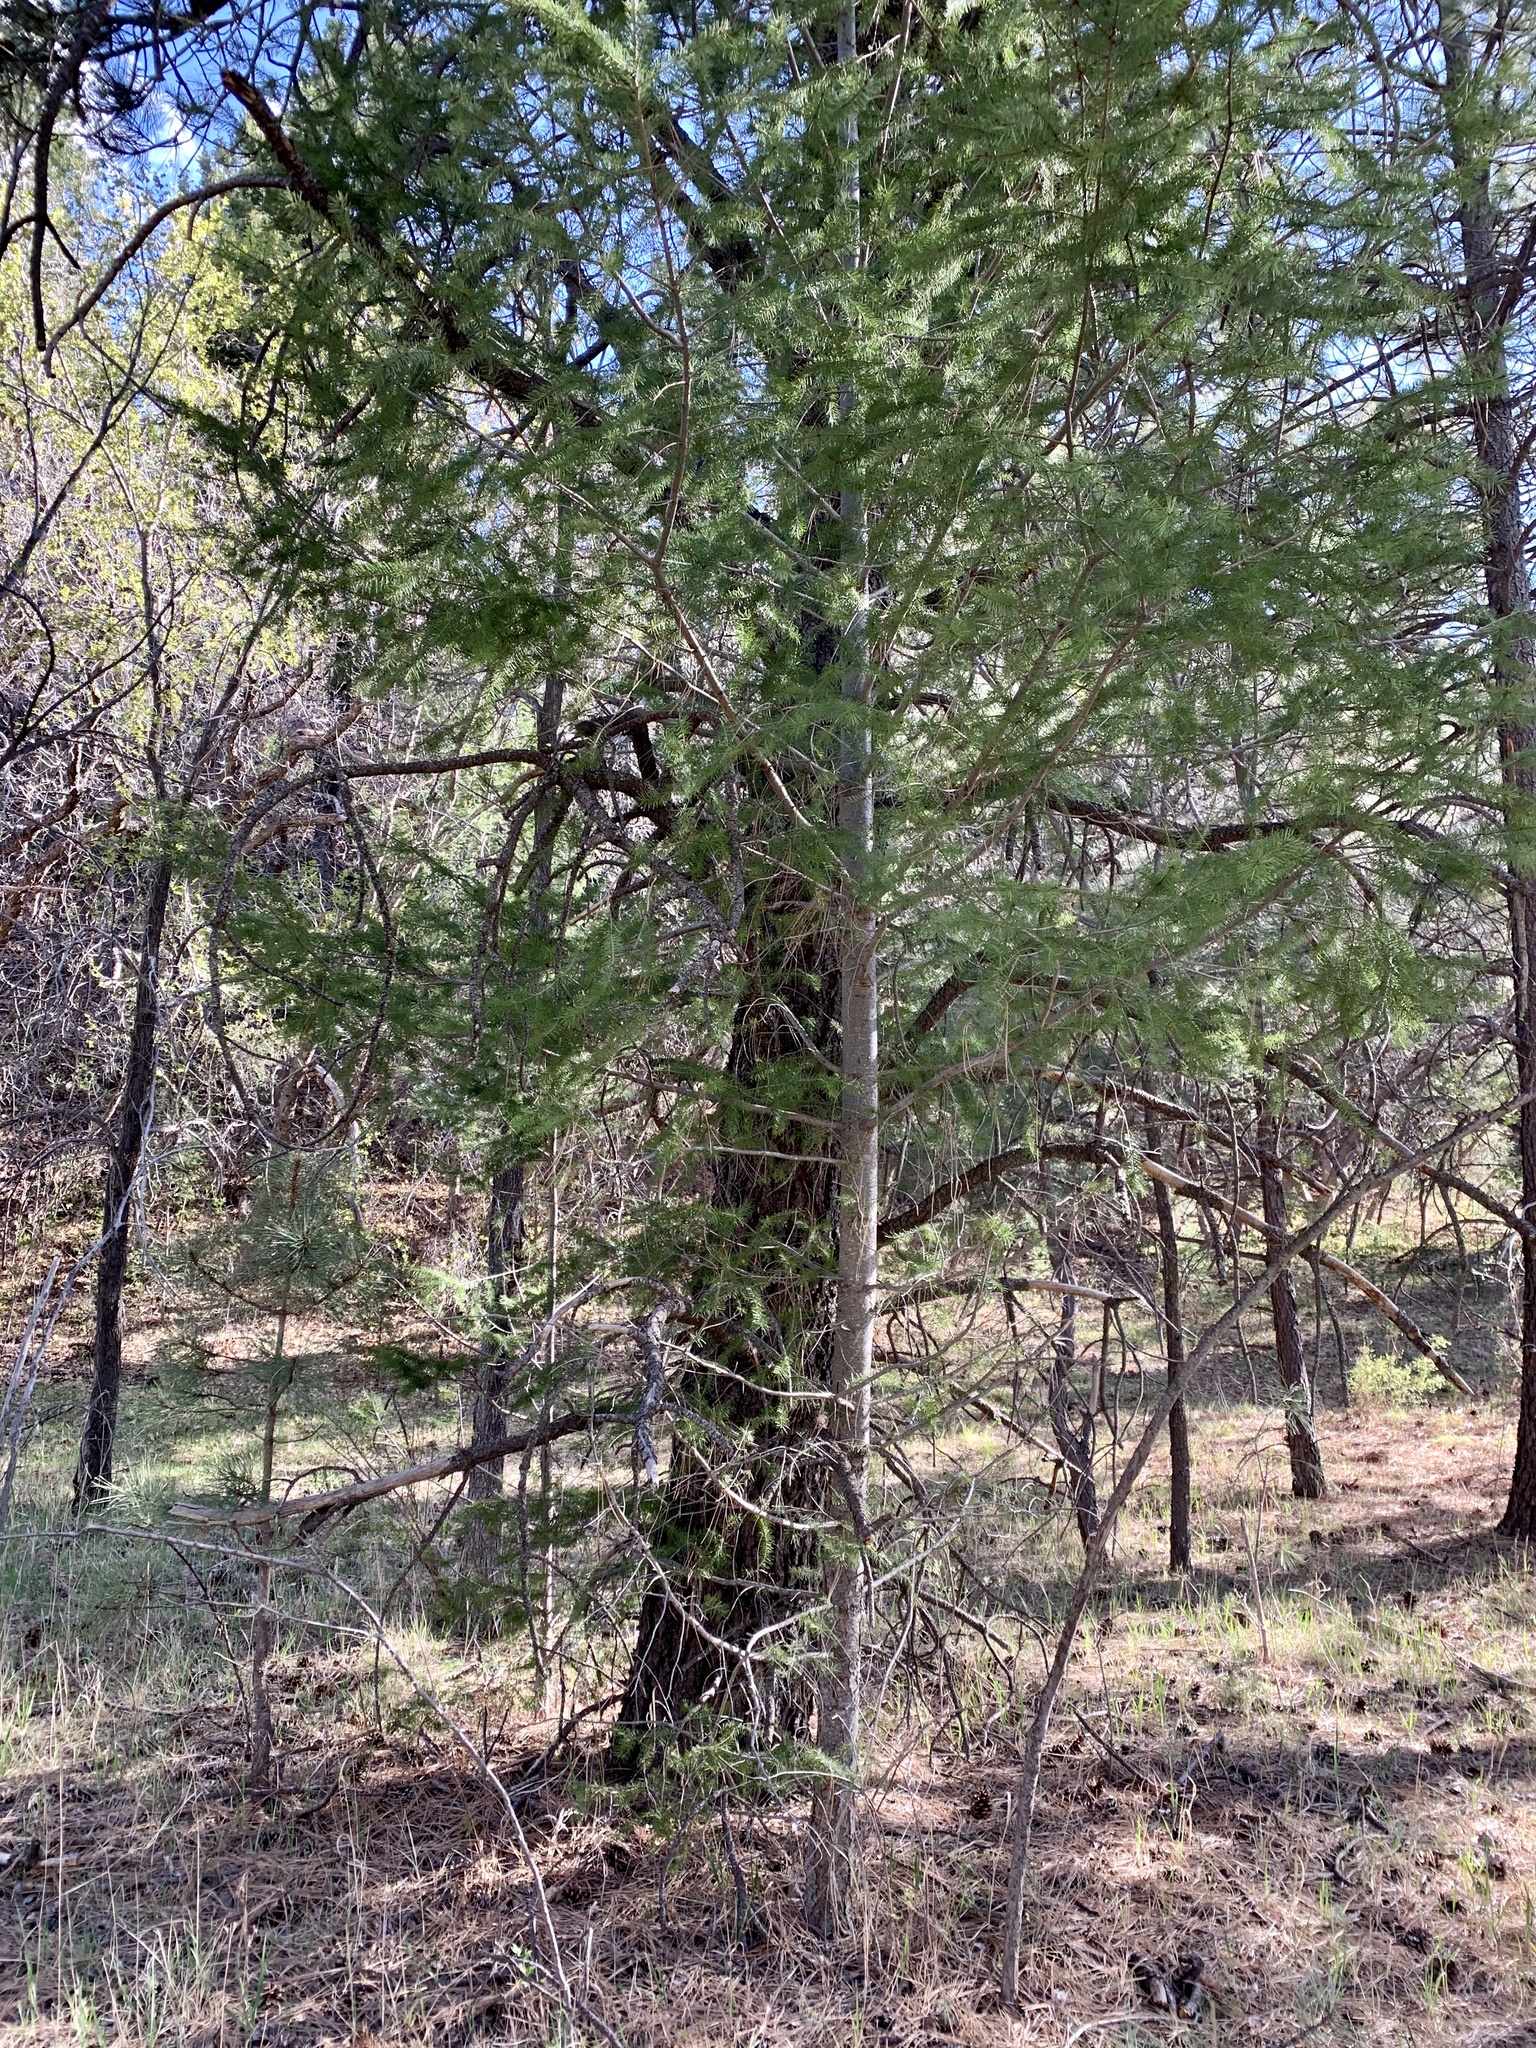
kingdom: Plantae
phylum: Tracheophyta
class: Pinopsida
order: Pinales
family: Pinaceae
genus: Pseudotsuga
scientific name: Pseudotsuga menziesii
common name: Douglas fir
